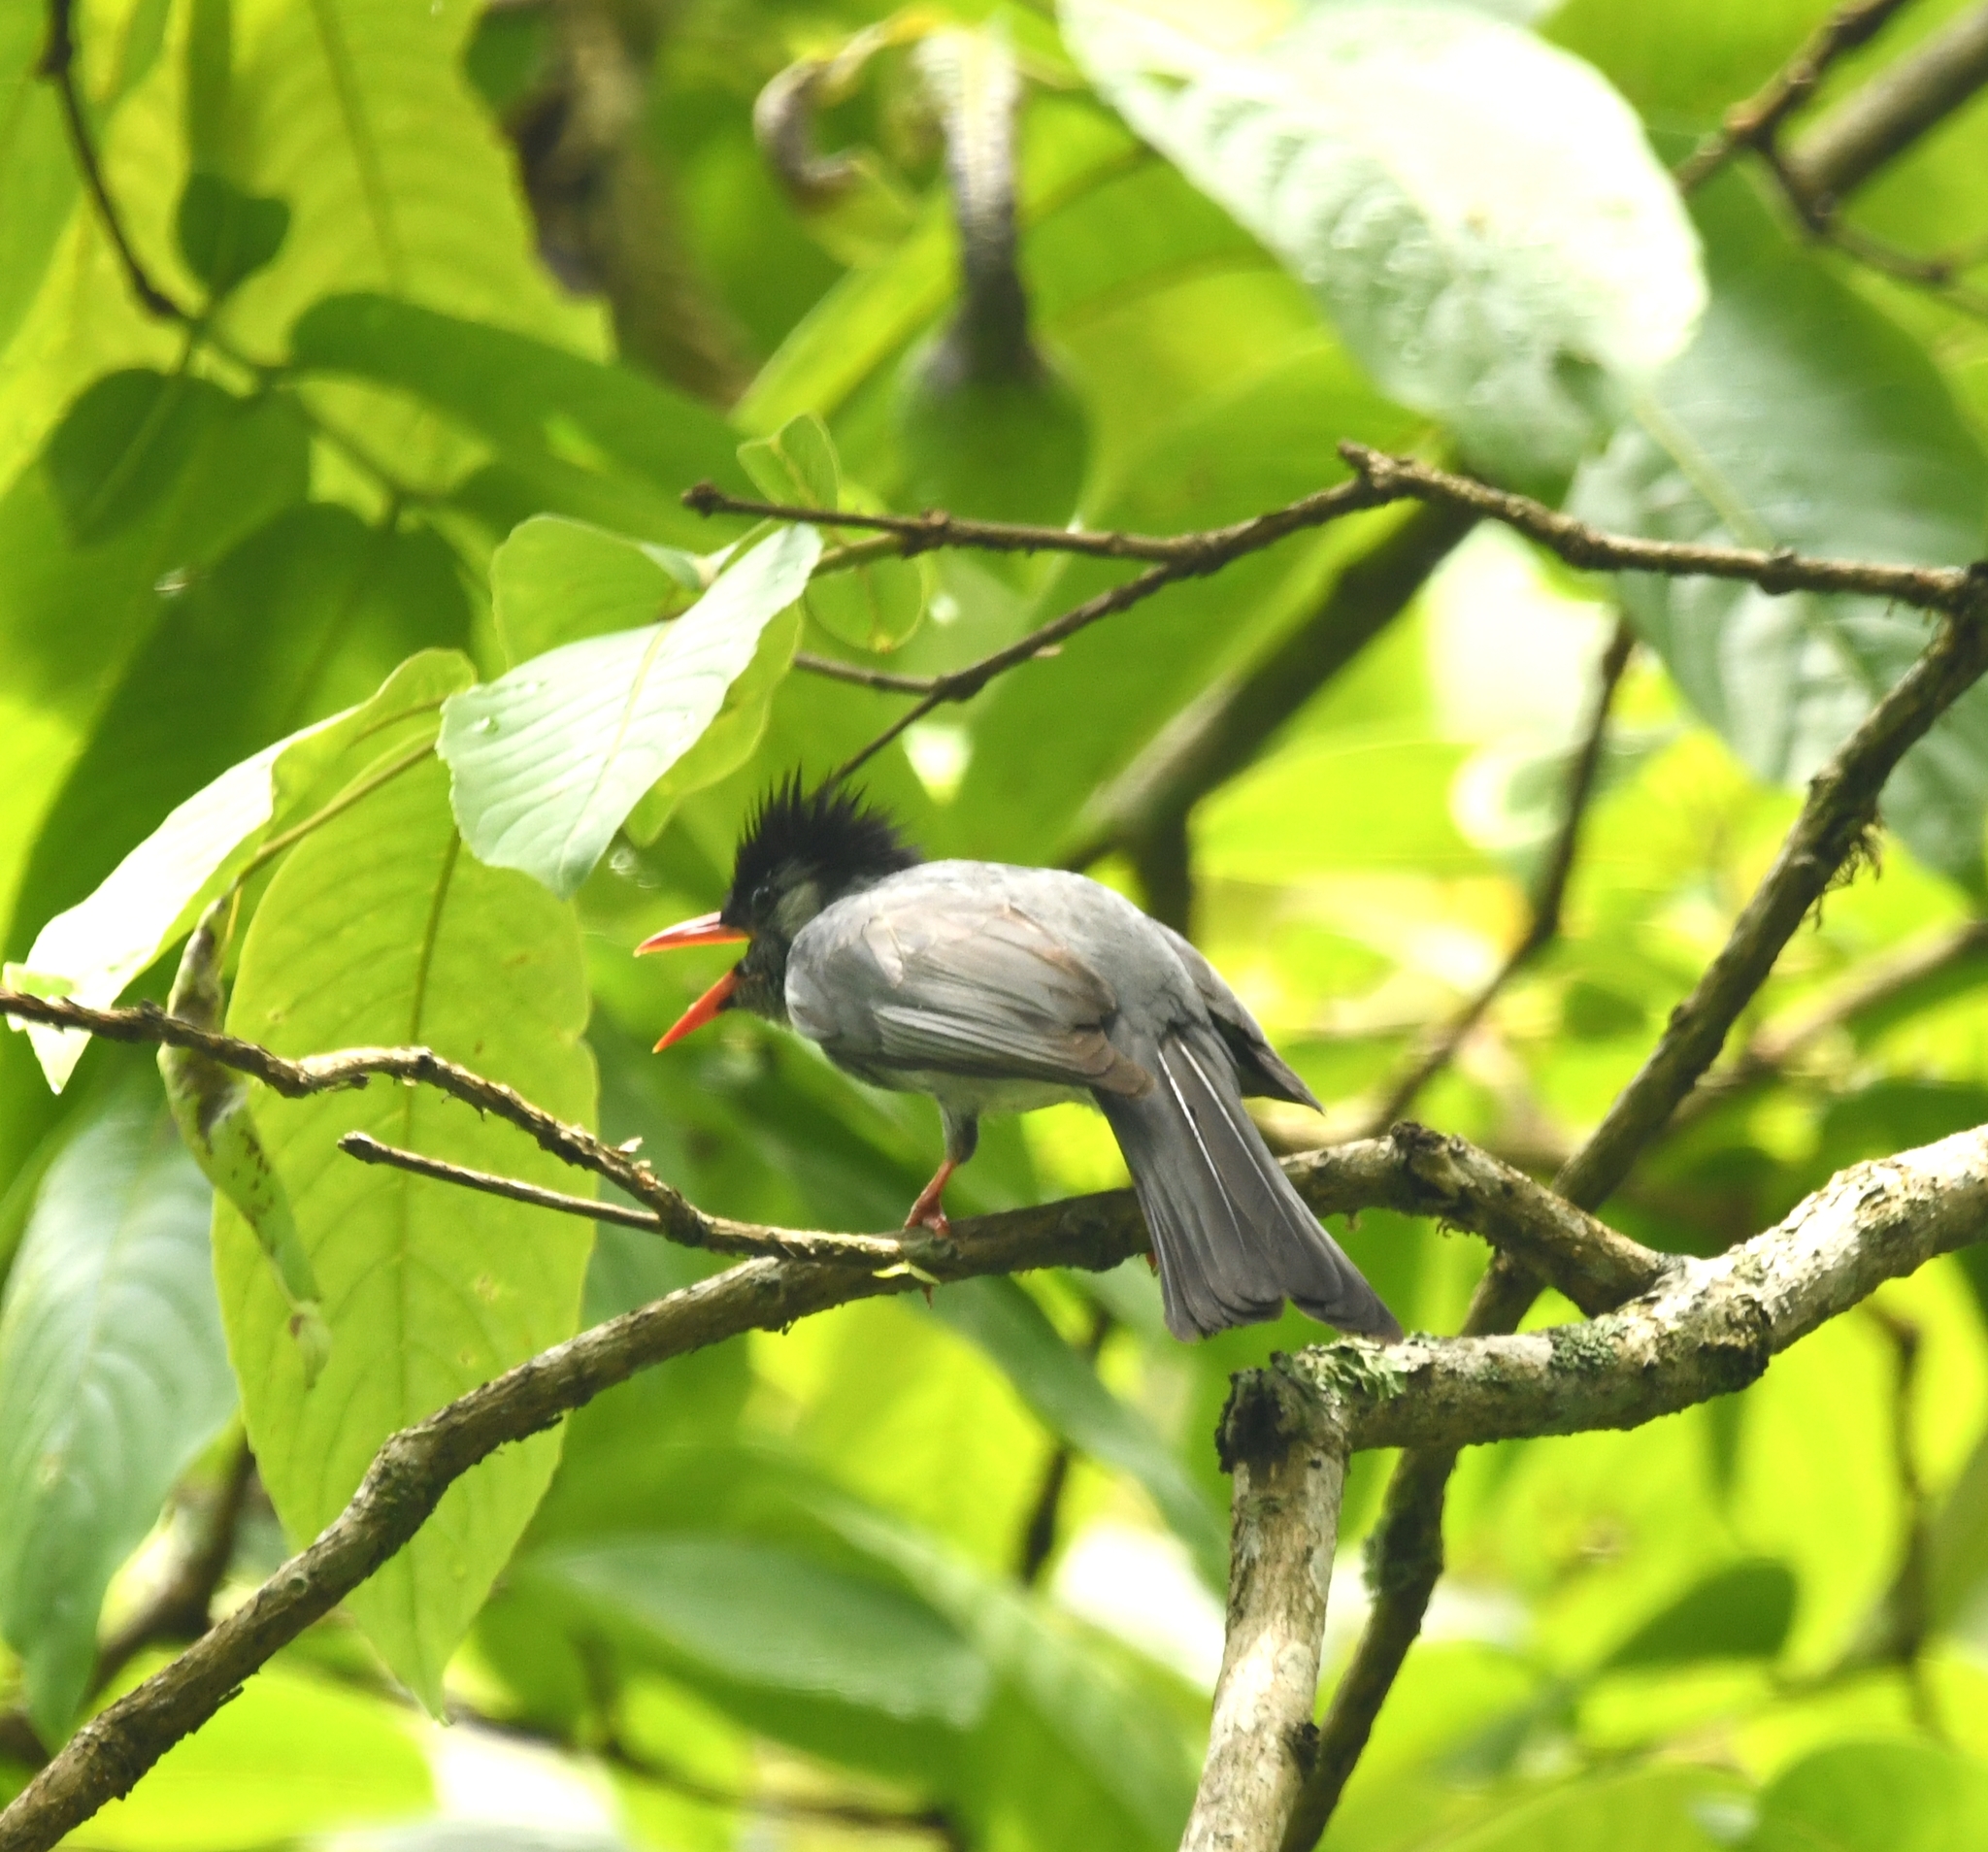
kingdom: Animalia
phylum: Chordata
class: Aves
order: Passeriformes
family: Pycnonotidae
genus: Hypsipetes
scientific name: Hypsipetes leucocephalus
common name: Black bulbul
